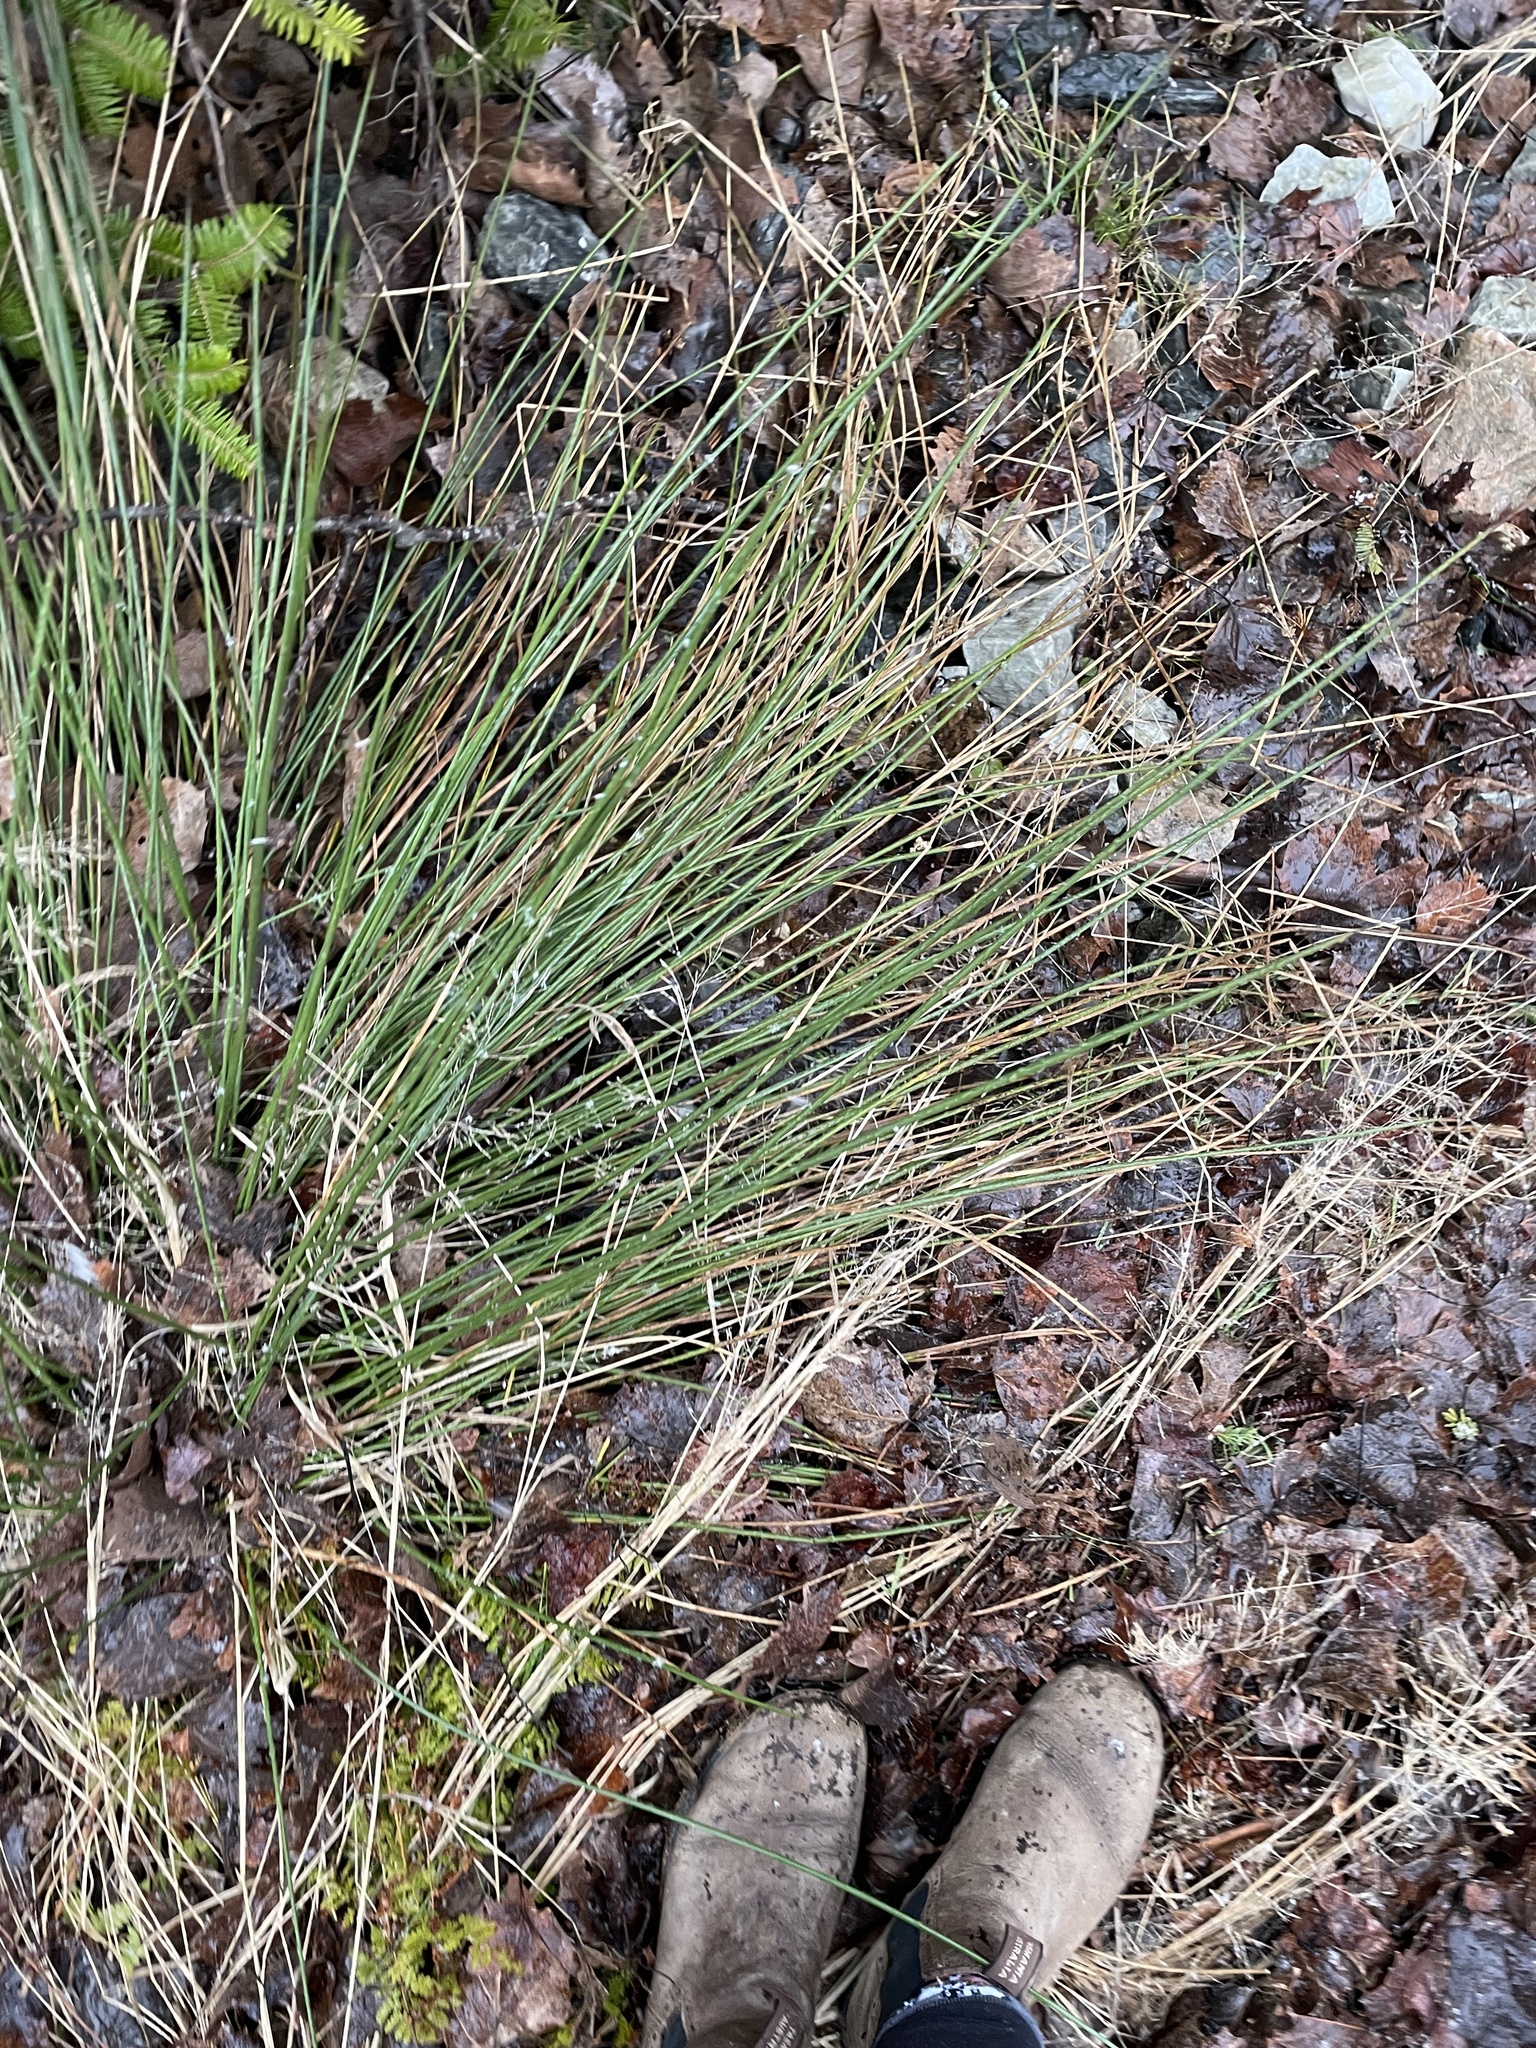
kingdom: Plantae
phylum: Tracheophyta
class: Liliopsida
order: Poales
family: Juncaceae
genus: Juncus
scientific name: Juncus effusus
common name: Soft rush
